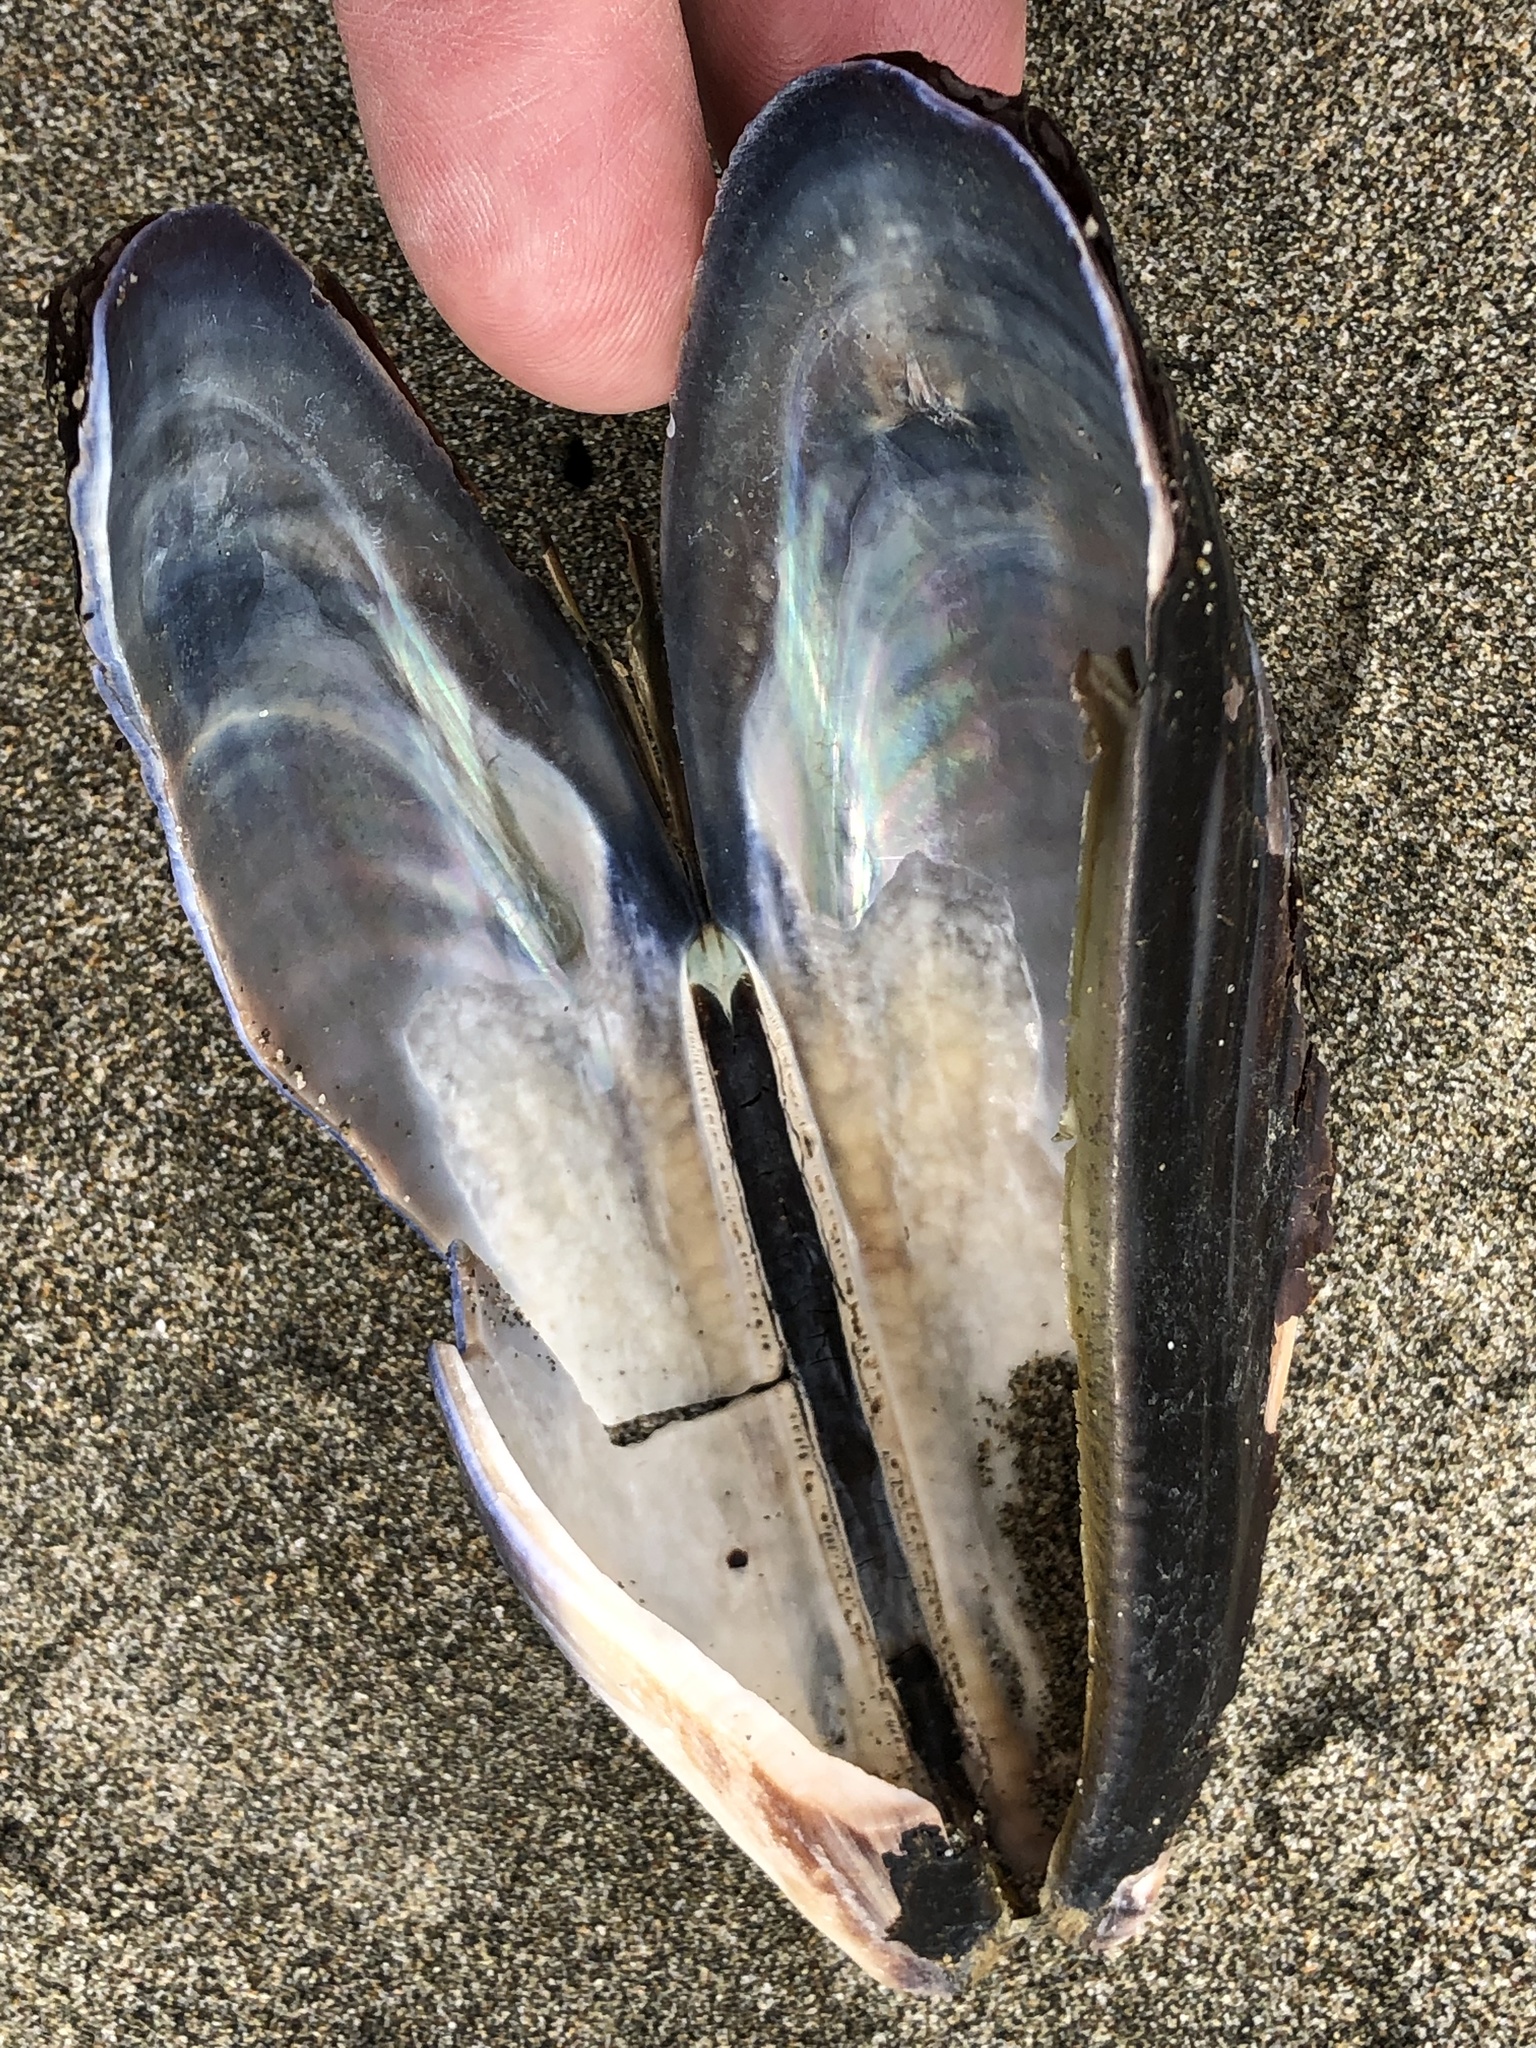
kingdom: Animalia
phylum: Mollusca
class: Bivalvia
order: Mytilida
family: Mytilidae
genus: Mytilus
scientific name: Mytilus californianus
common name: California mussel
